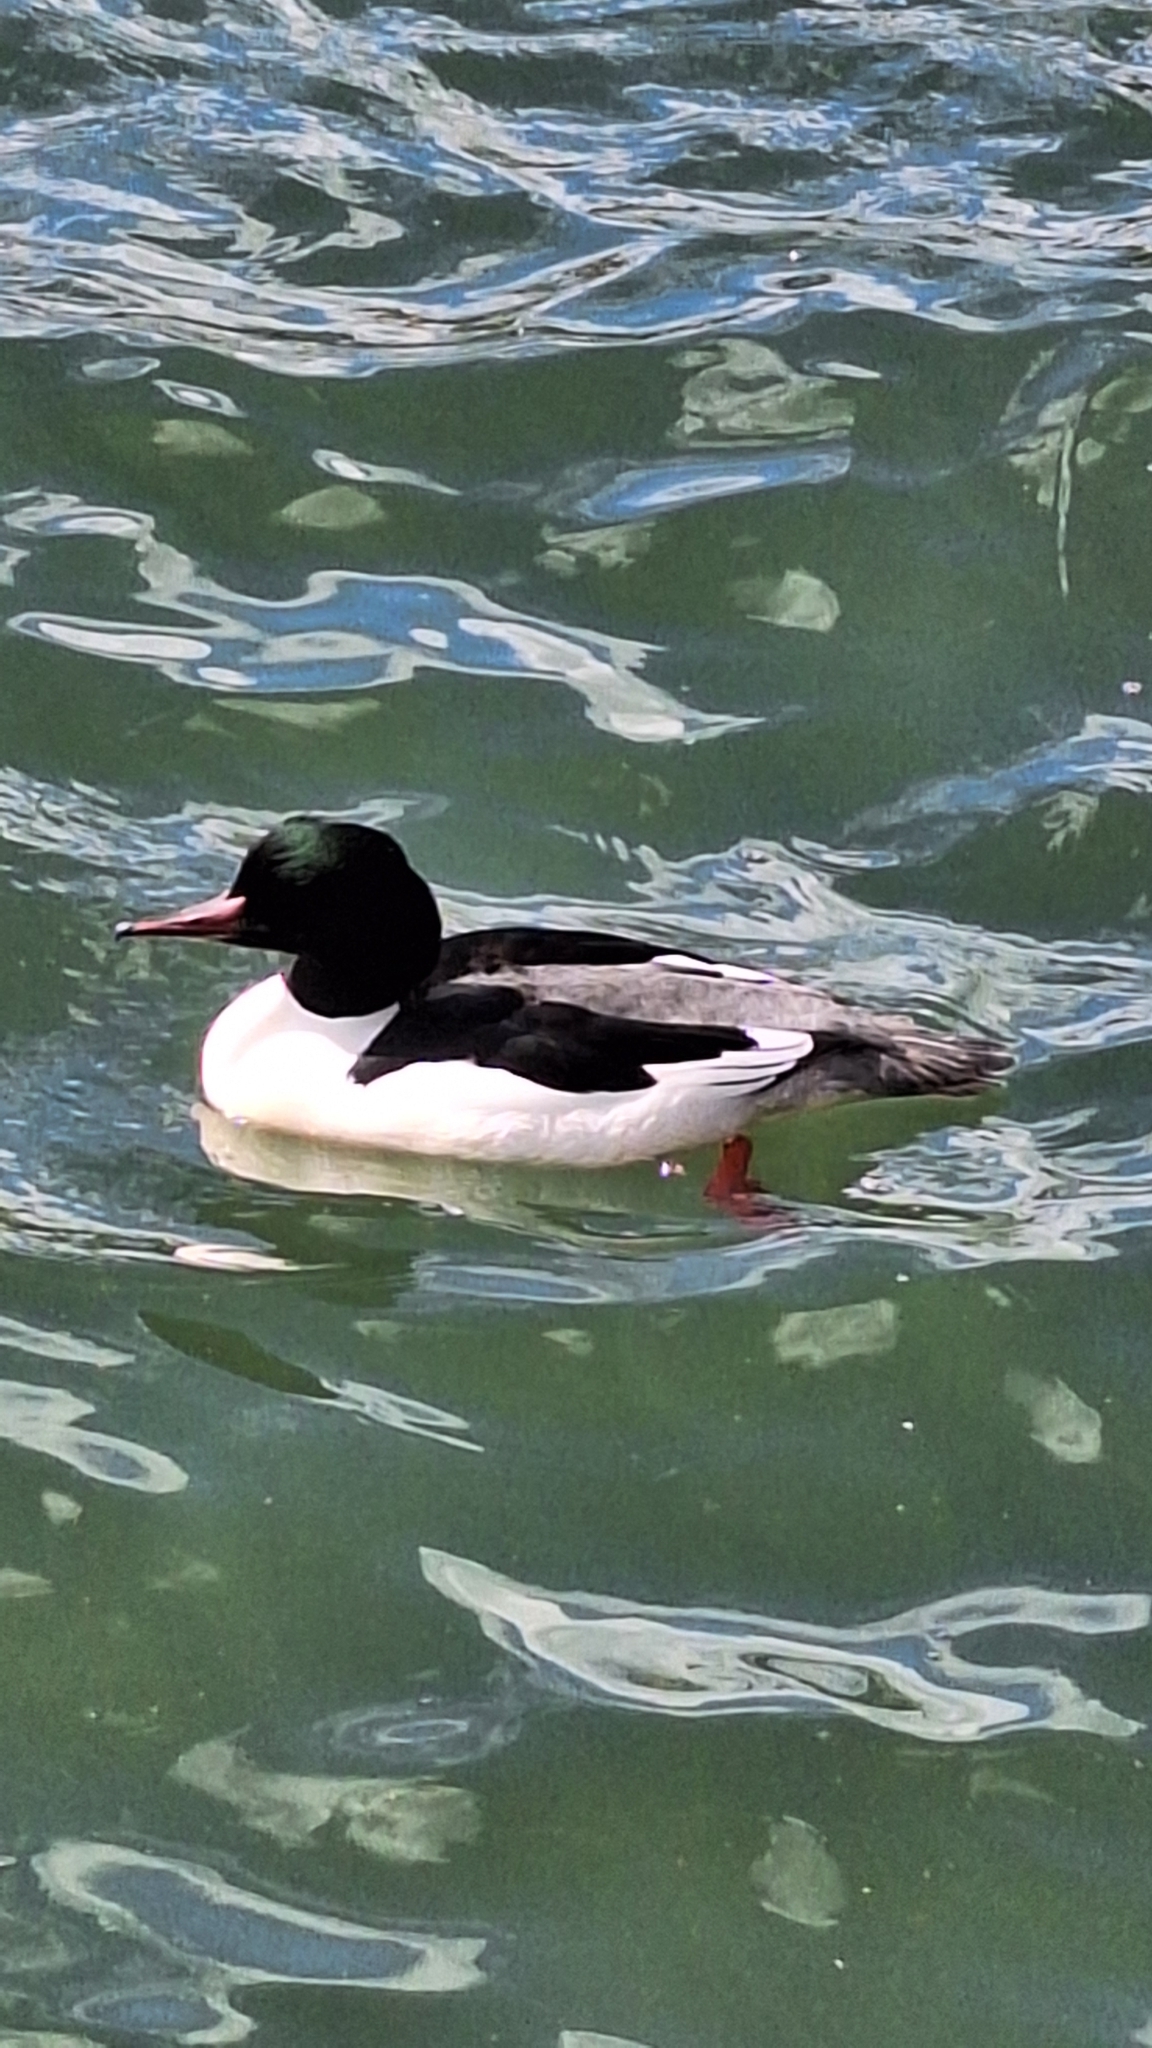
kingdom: Animalia
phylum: Chordata
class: Aves
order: Anseriformes
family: Anatidae
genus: Mergus
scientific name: Mergus merganser
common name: Common merganser
